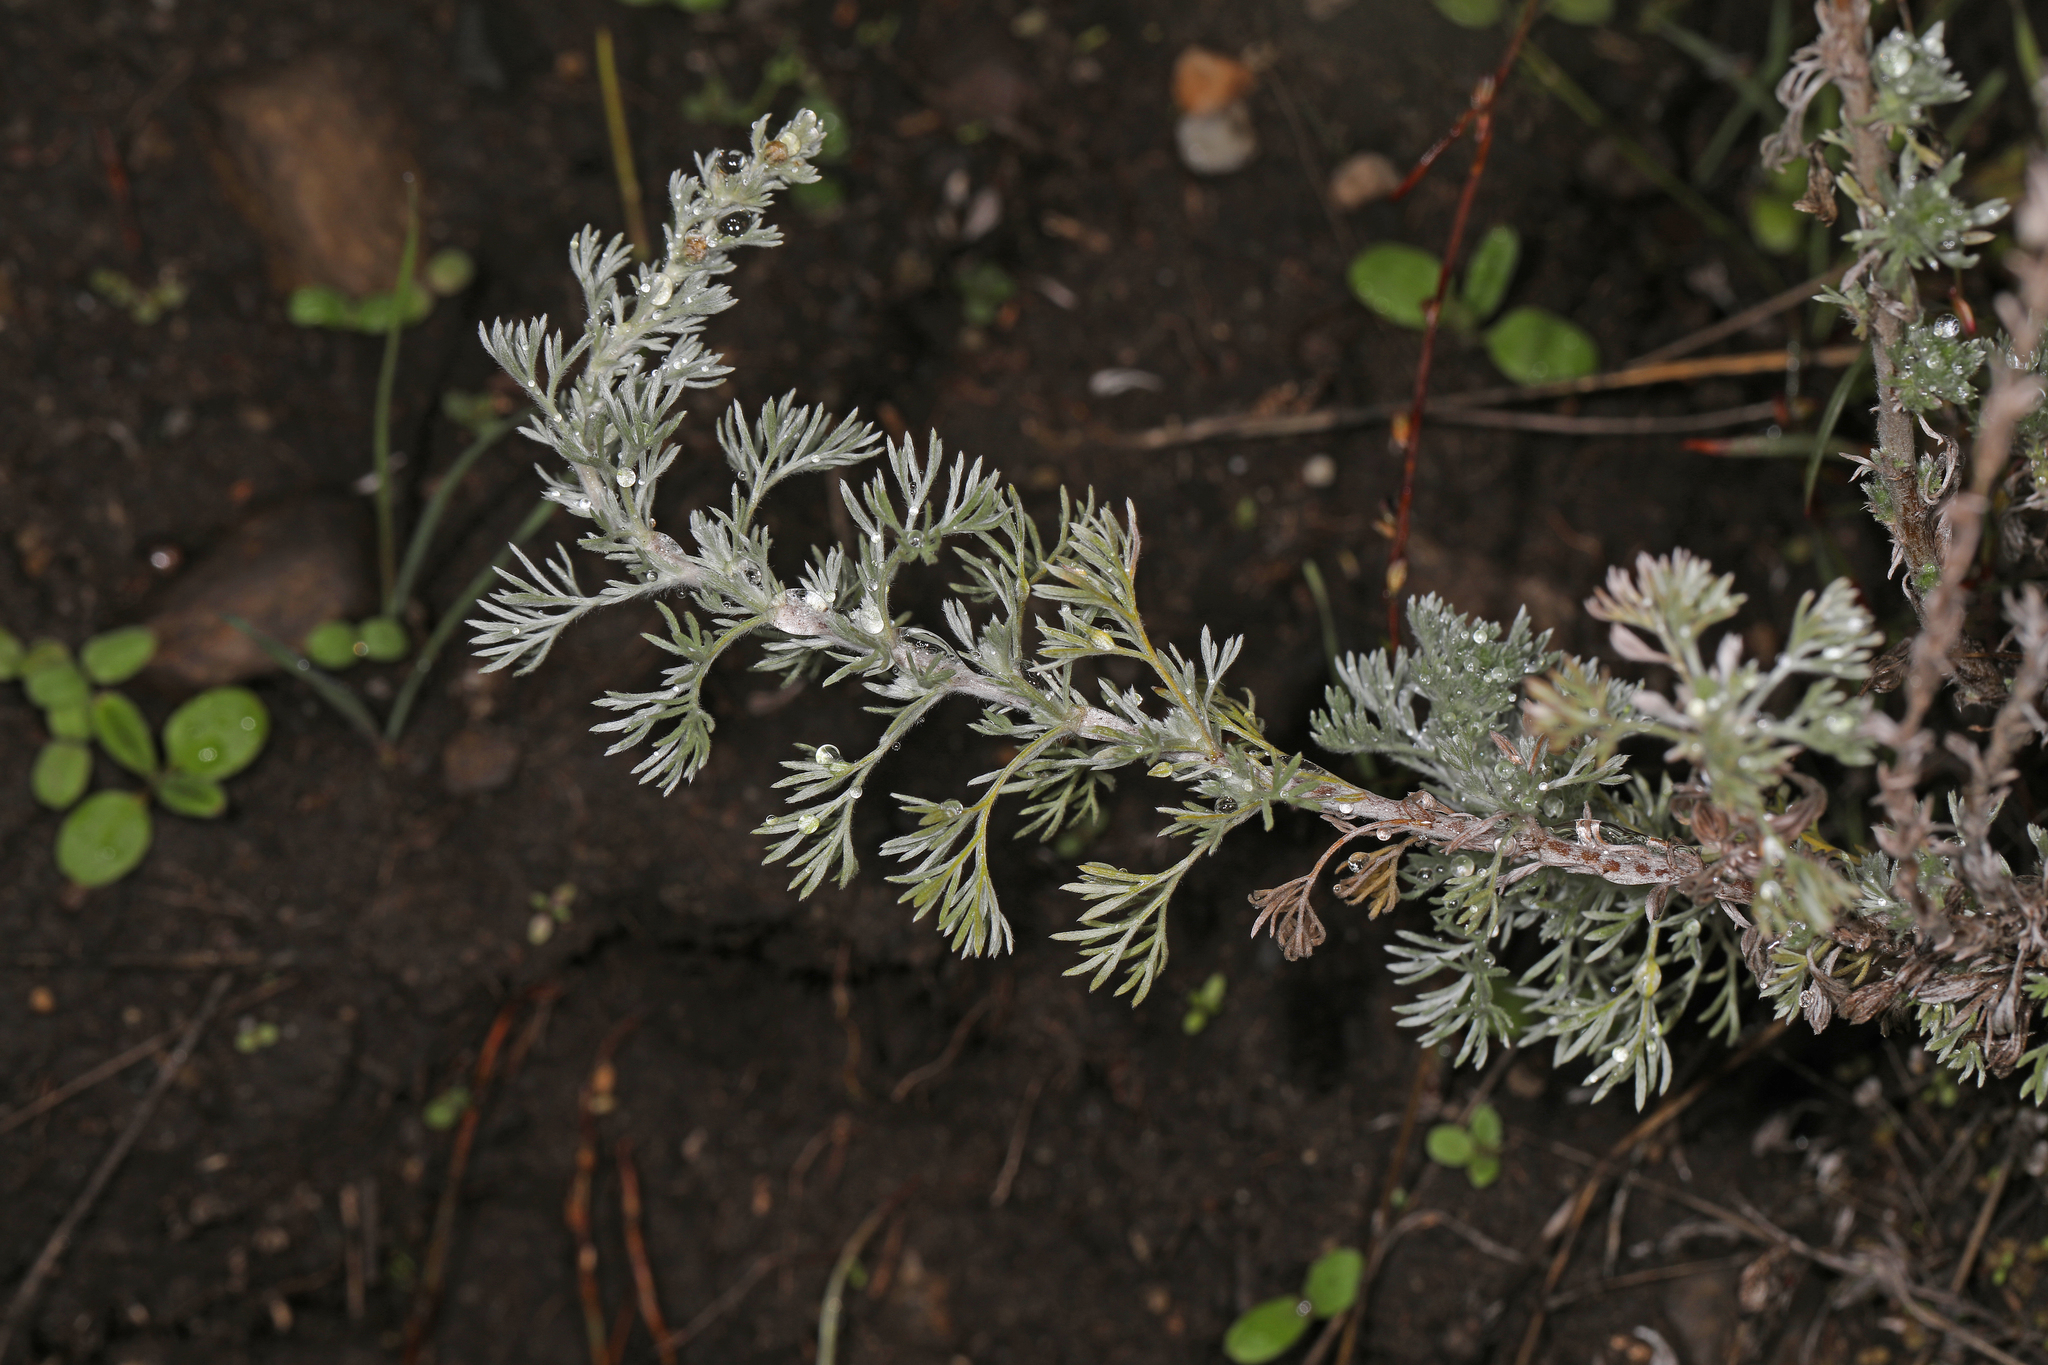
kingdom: Plantae
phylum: Tracheophyta
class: Magnoliopsida
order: Asterales
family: Asteraceae
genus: Artemisia
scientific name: Artemisia frigida
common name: Prairie sagewort
